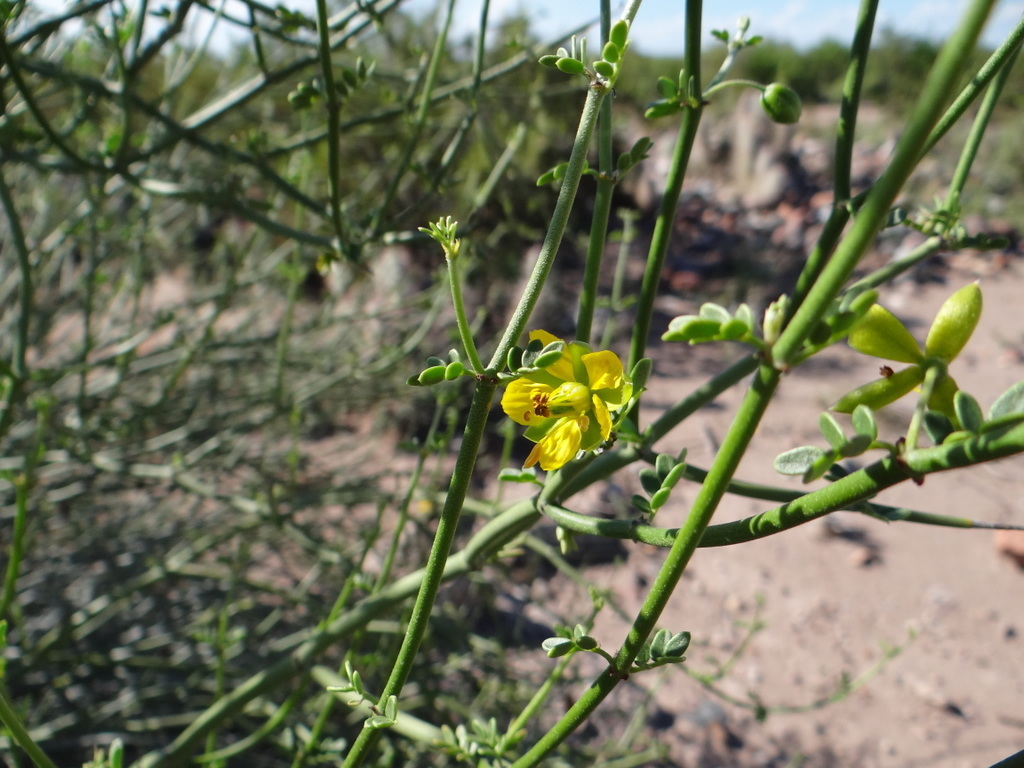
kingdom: Plantae
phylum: Tracheophyta
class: Magnoliopsida
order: Zygophyllales
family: Zygophyllaceae
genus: Bulnesia
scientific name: Bulnesia retama
